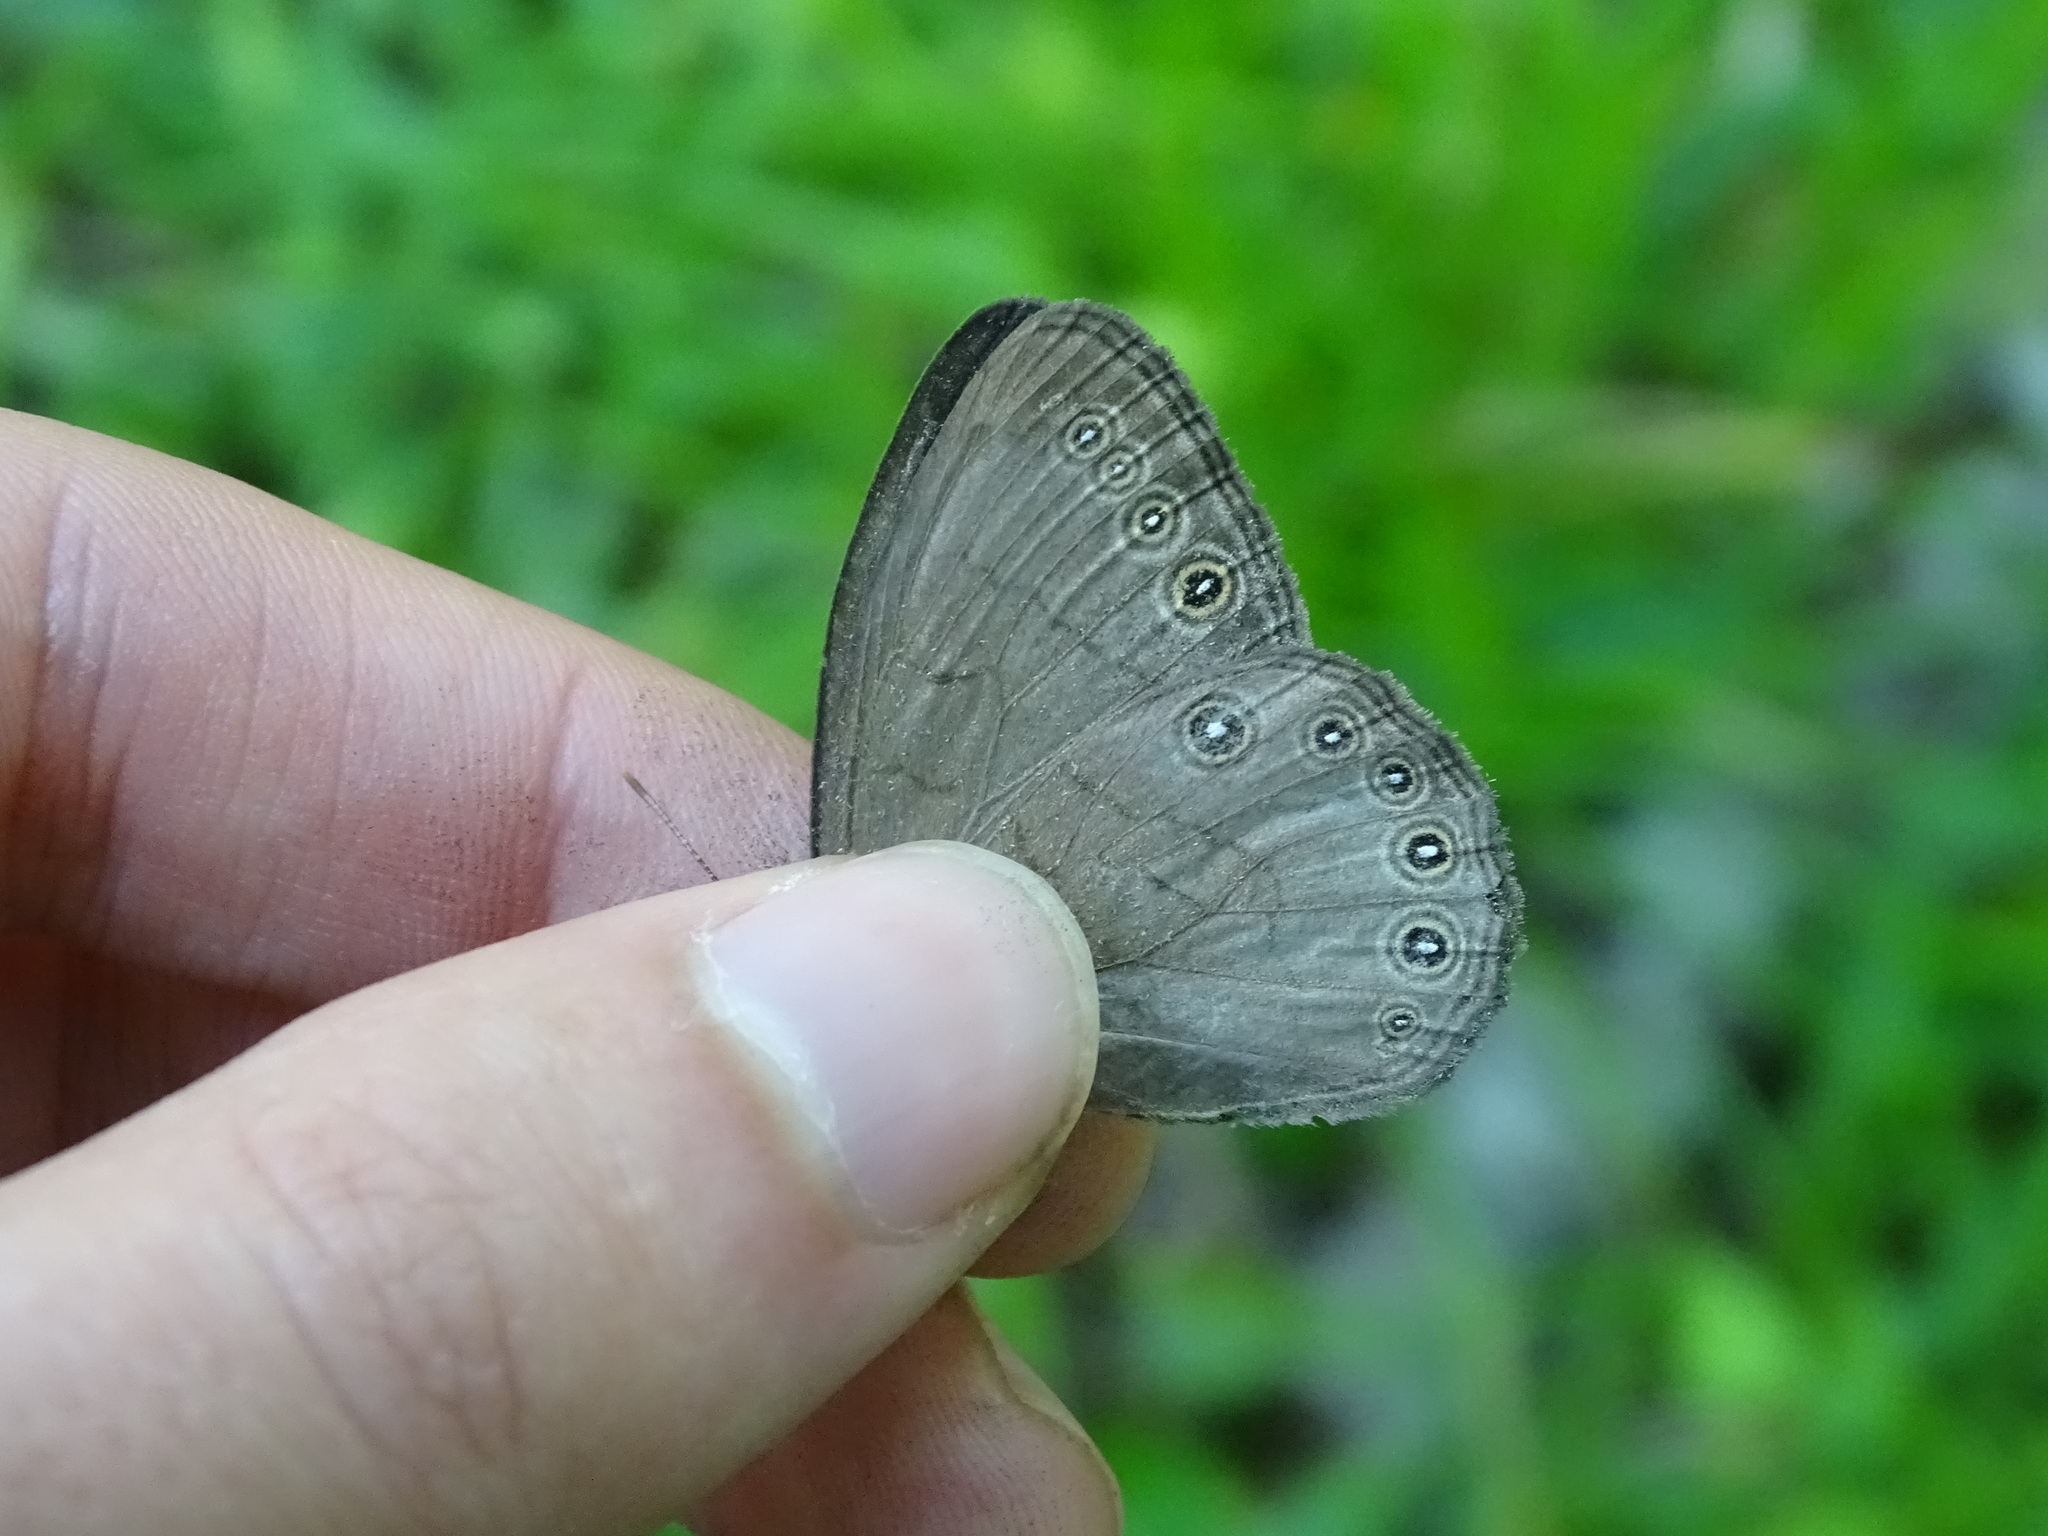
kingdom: Animalia
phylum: Arthropoda
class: Insecta
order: Lepidoptera
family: Nymphalidae
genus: Lethe
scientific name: Lethe eurydice
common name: Eyed brown
